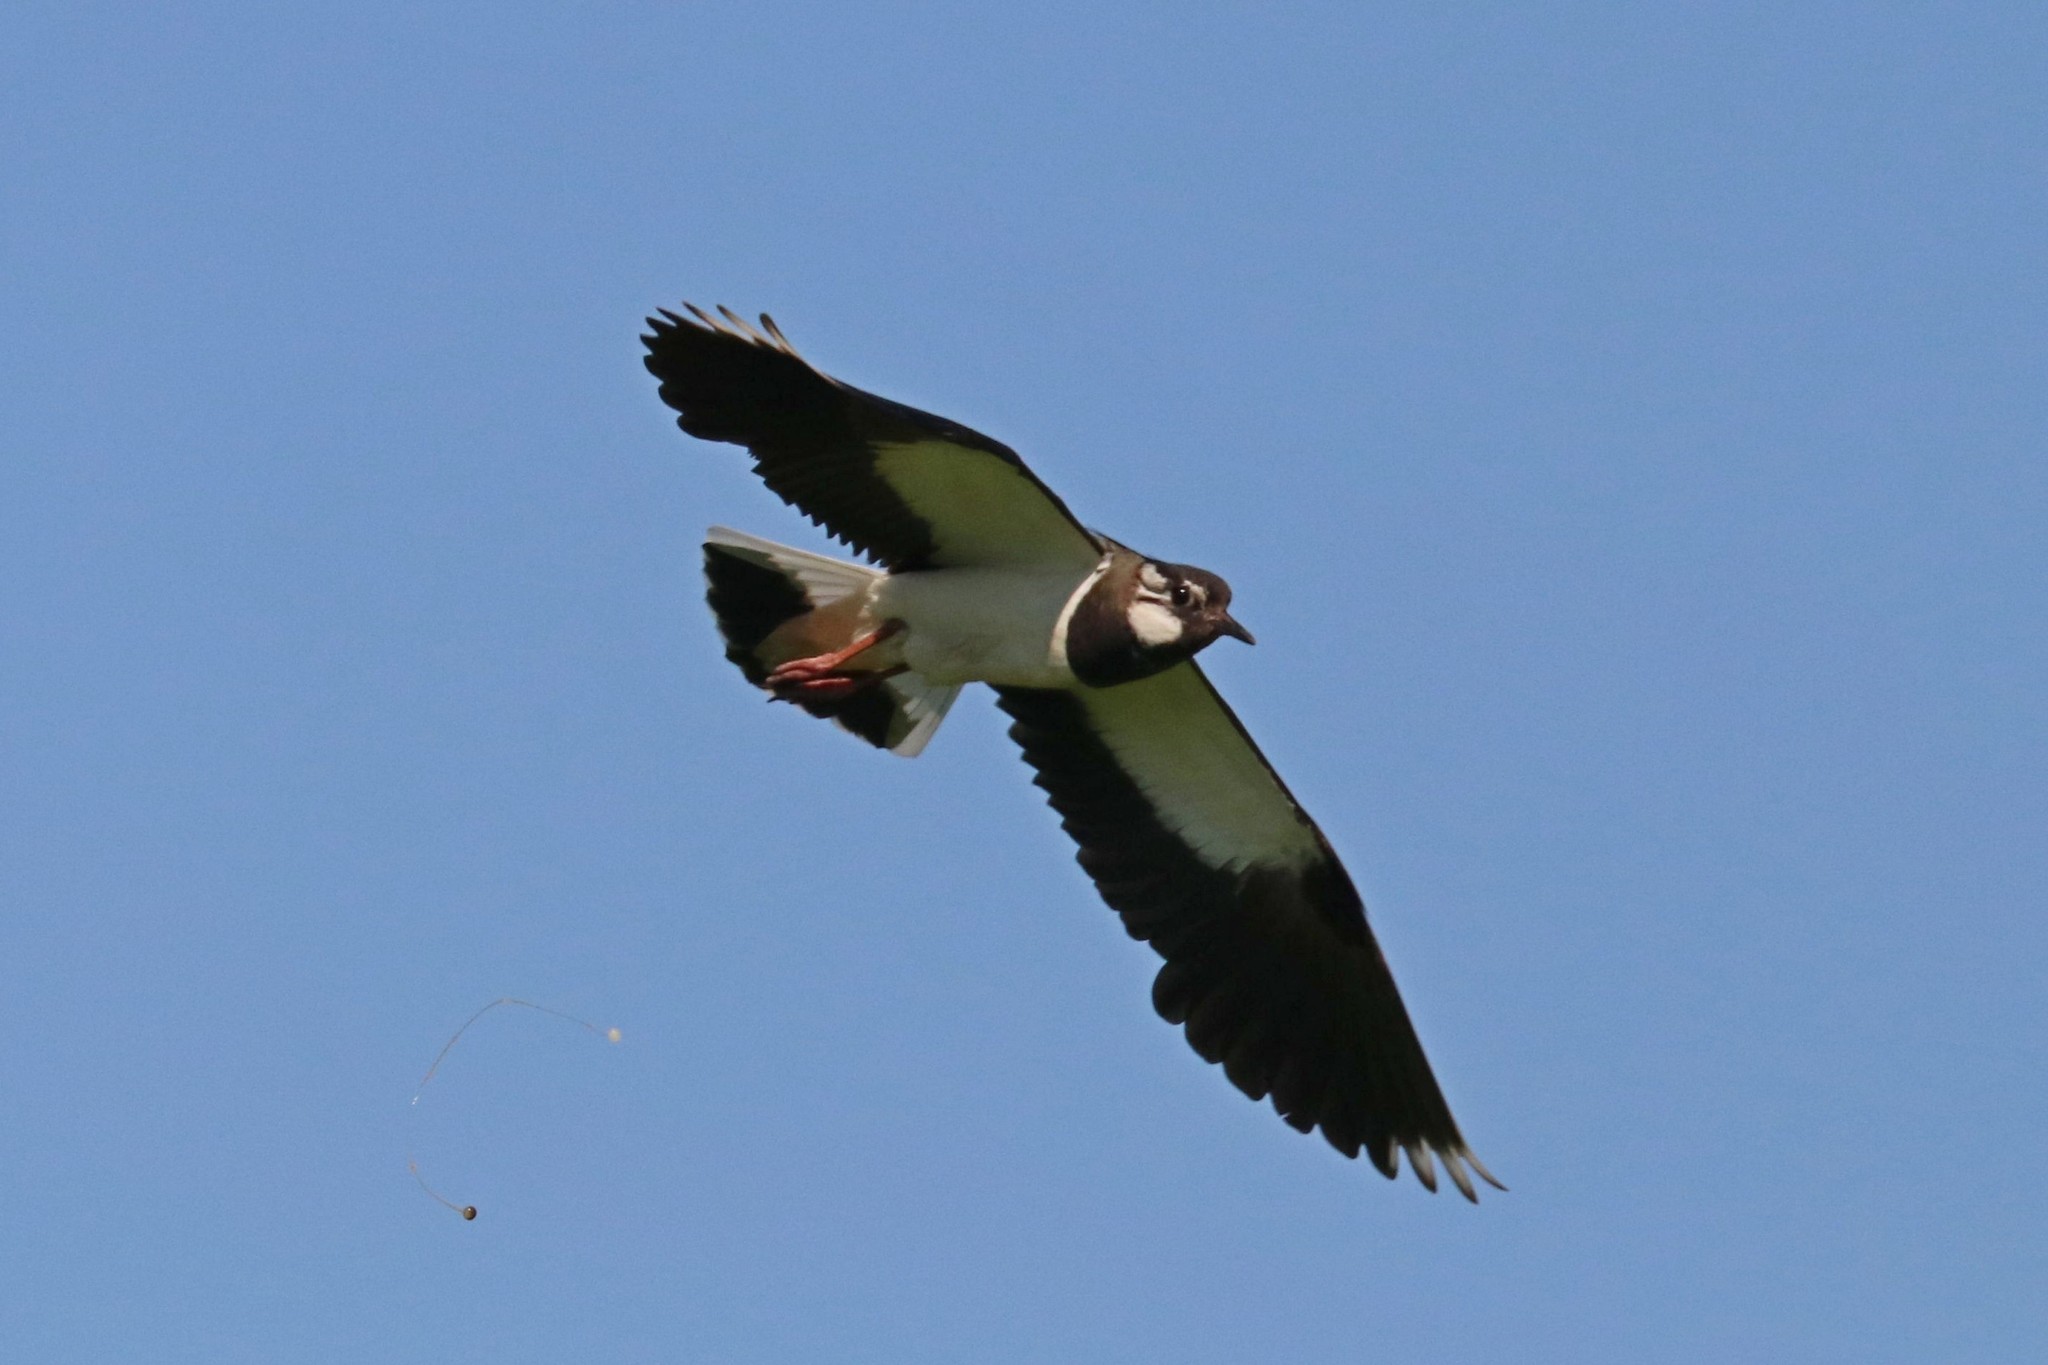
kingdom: Animalia
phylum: Chordata
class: Aves
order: Charadriiformes
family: Charadriidae
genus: Vanellus
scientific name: Vanellus vanellus
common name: Northern lapwing
